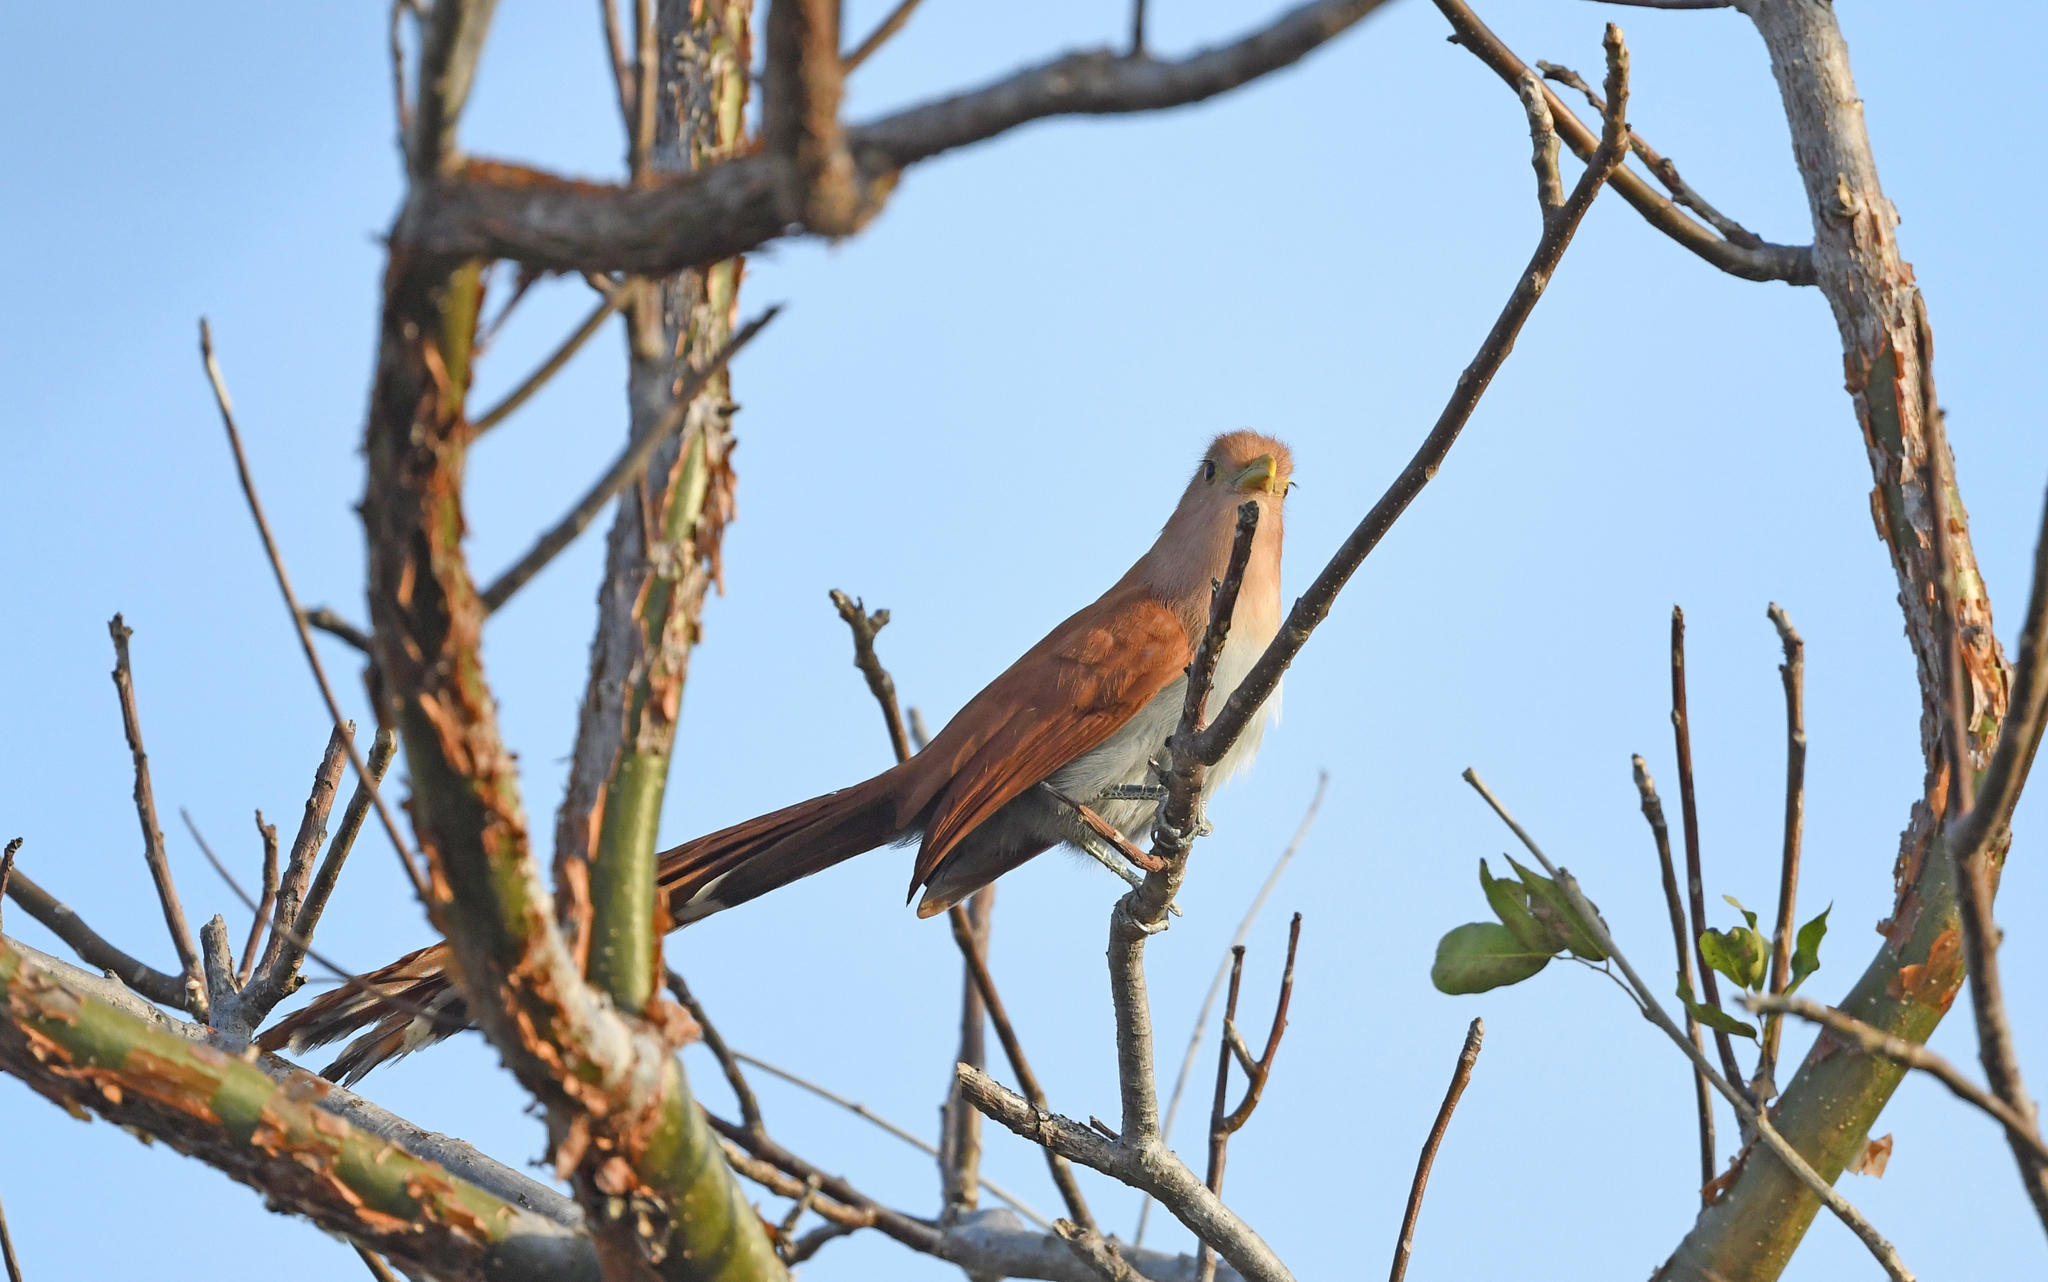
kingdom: Animalia
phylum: Chordata
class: Aves
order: Cuculiformes
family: Cuculidae
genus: Piaya
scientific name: Piaya cayana
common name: Squirrel cuckoo
